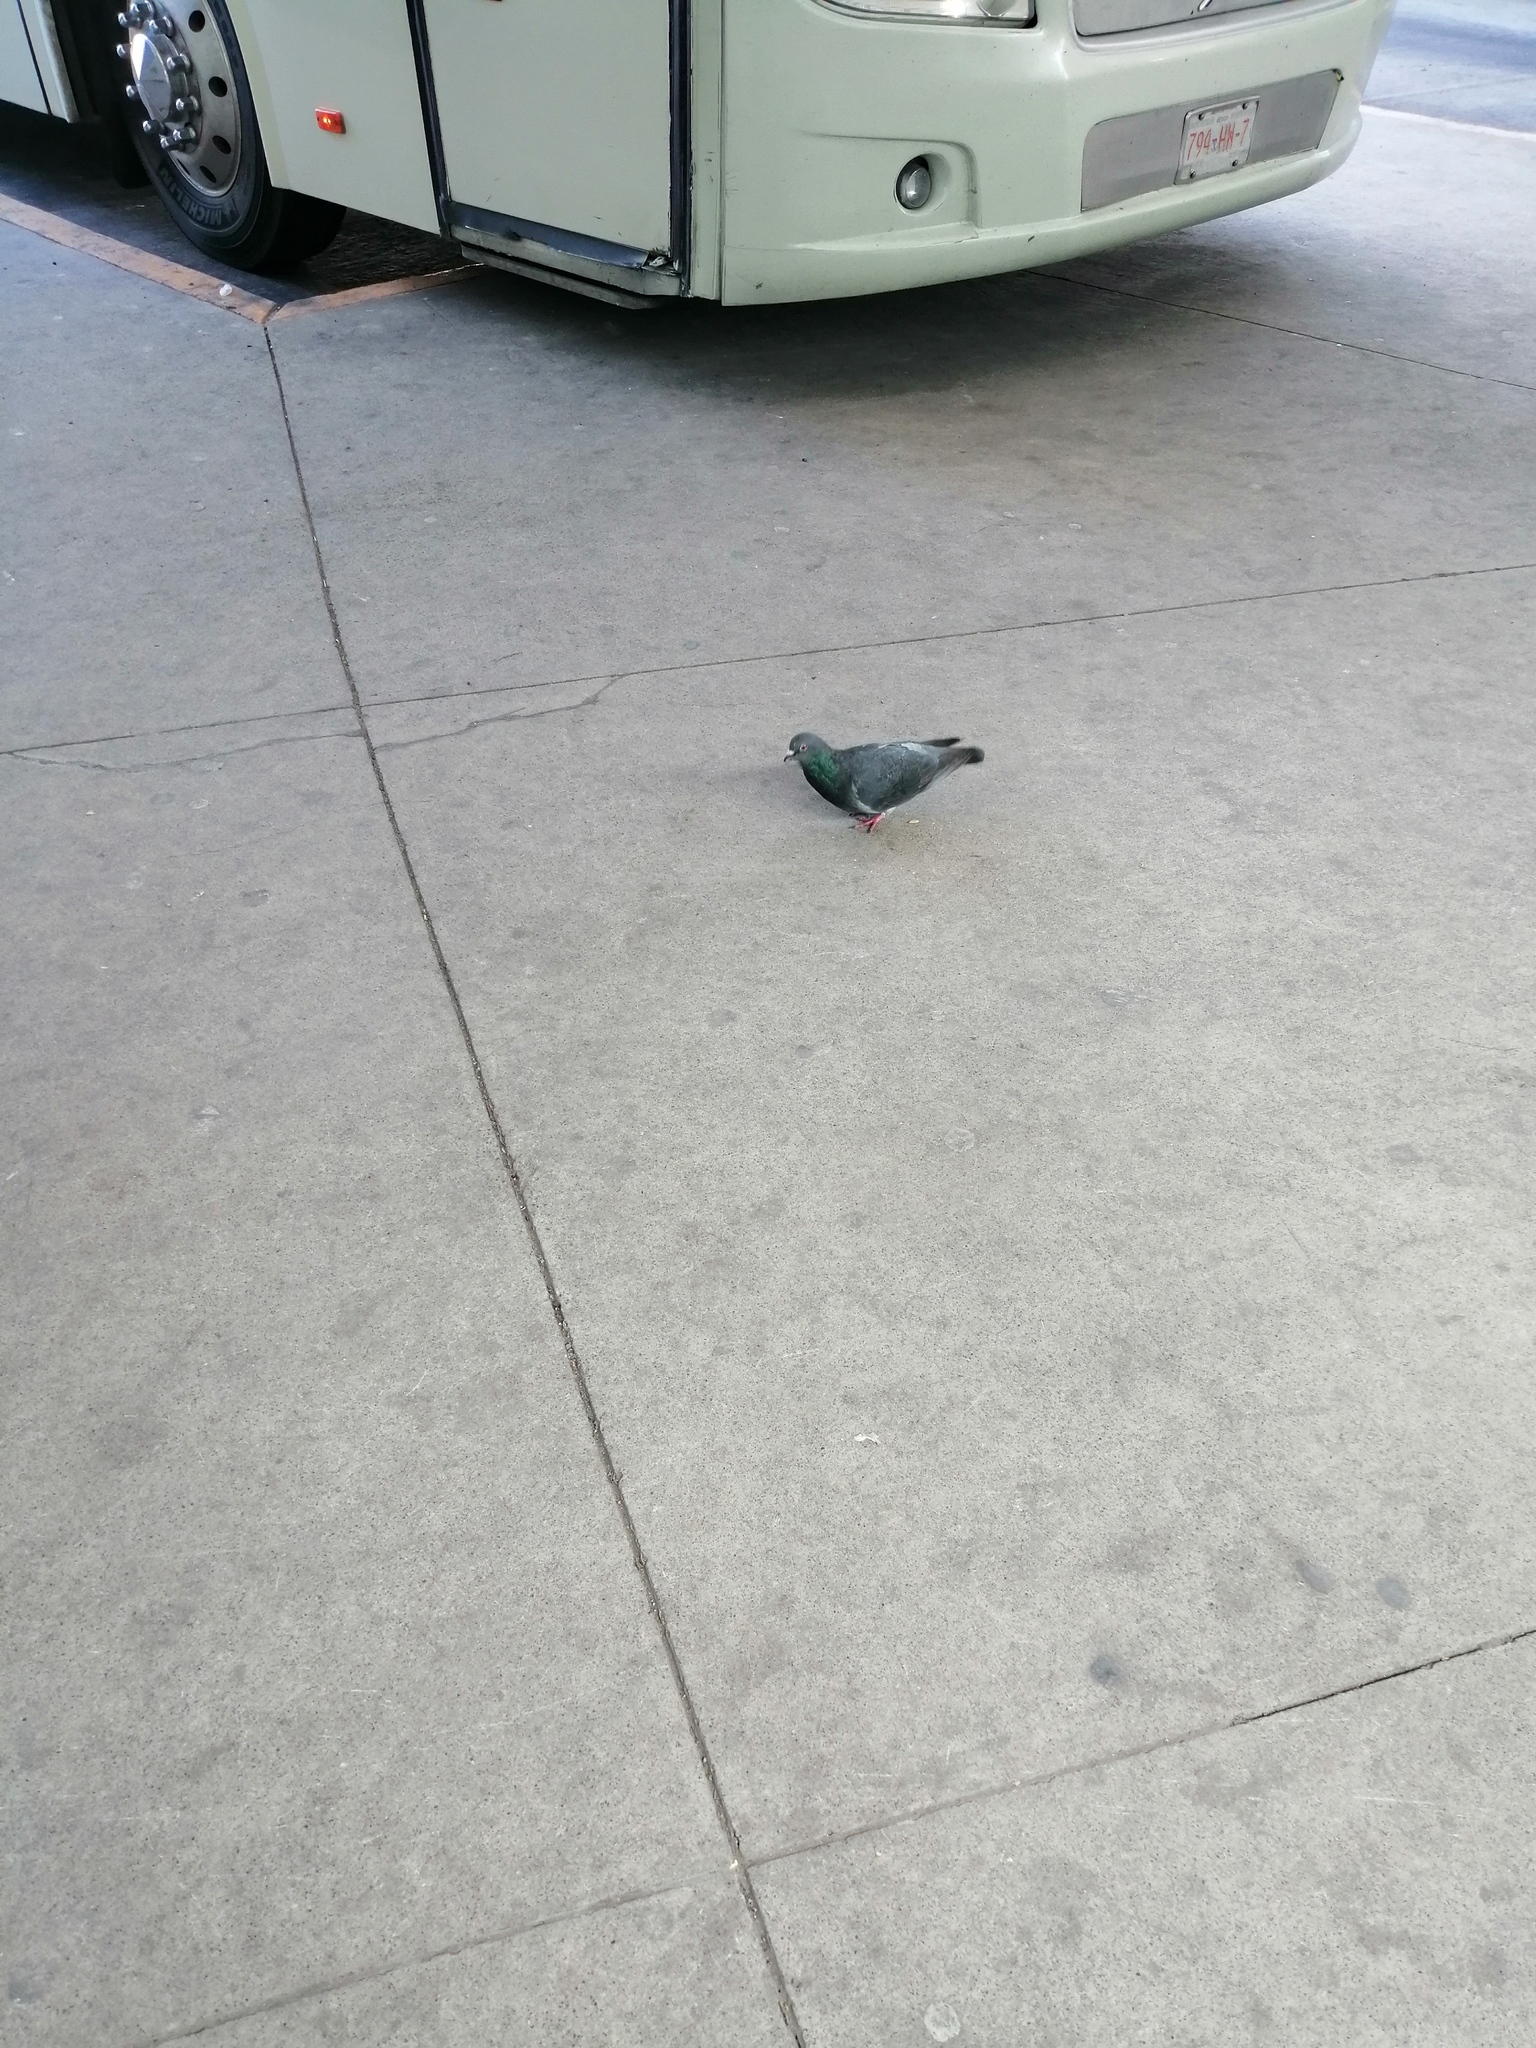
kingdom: Animalia
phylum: Chordata
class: Aves
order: Columbiformes
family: Columbidae
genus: Columba
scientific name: Columba livia
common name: Rock pigeon
